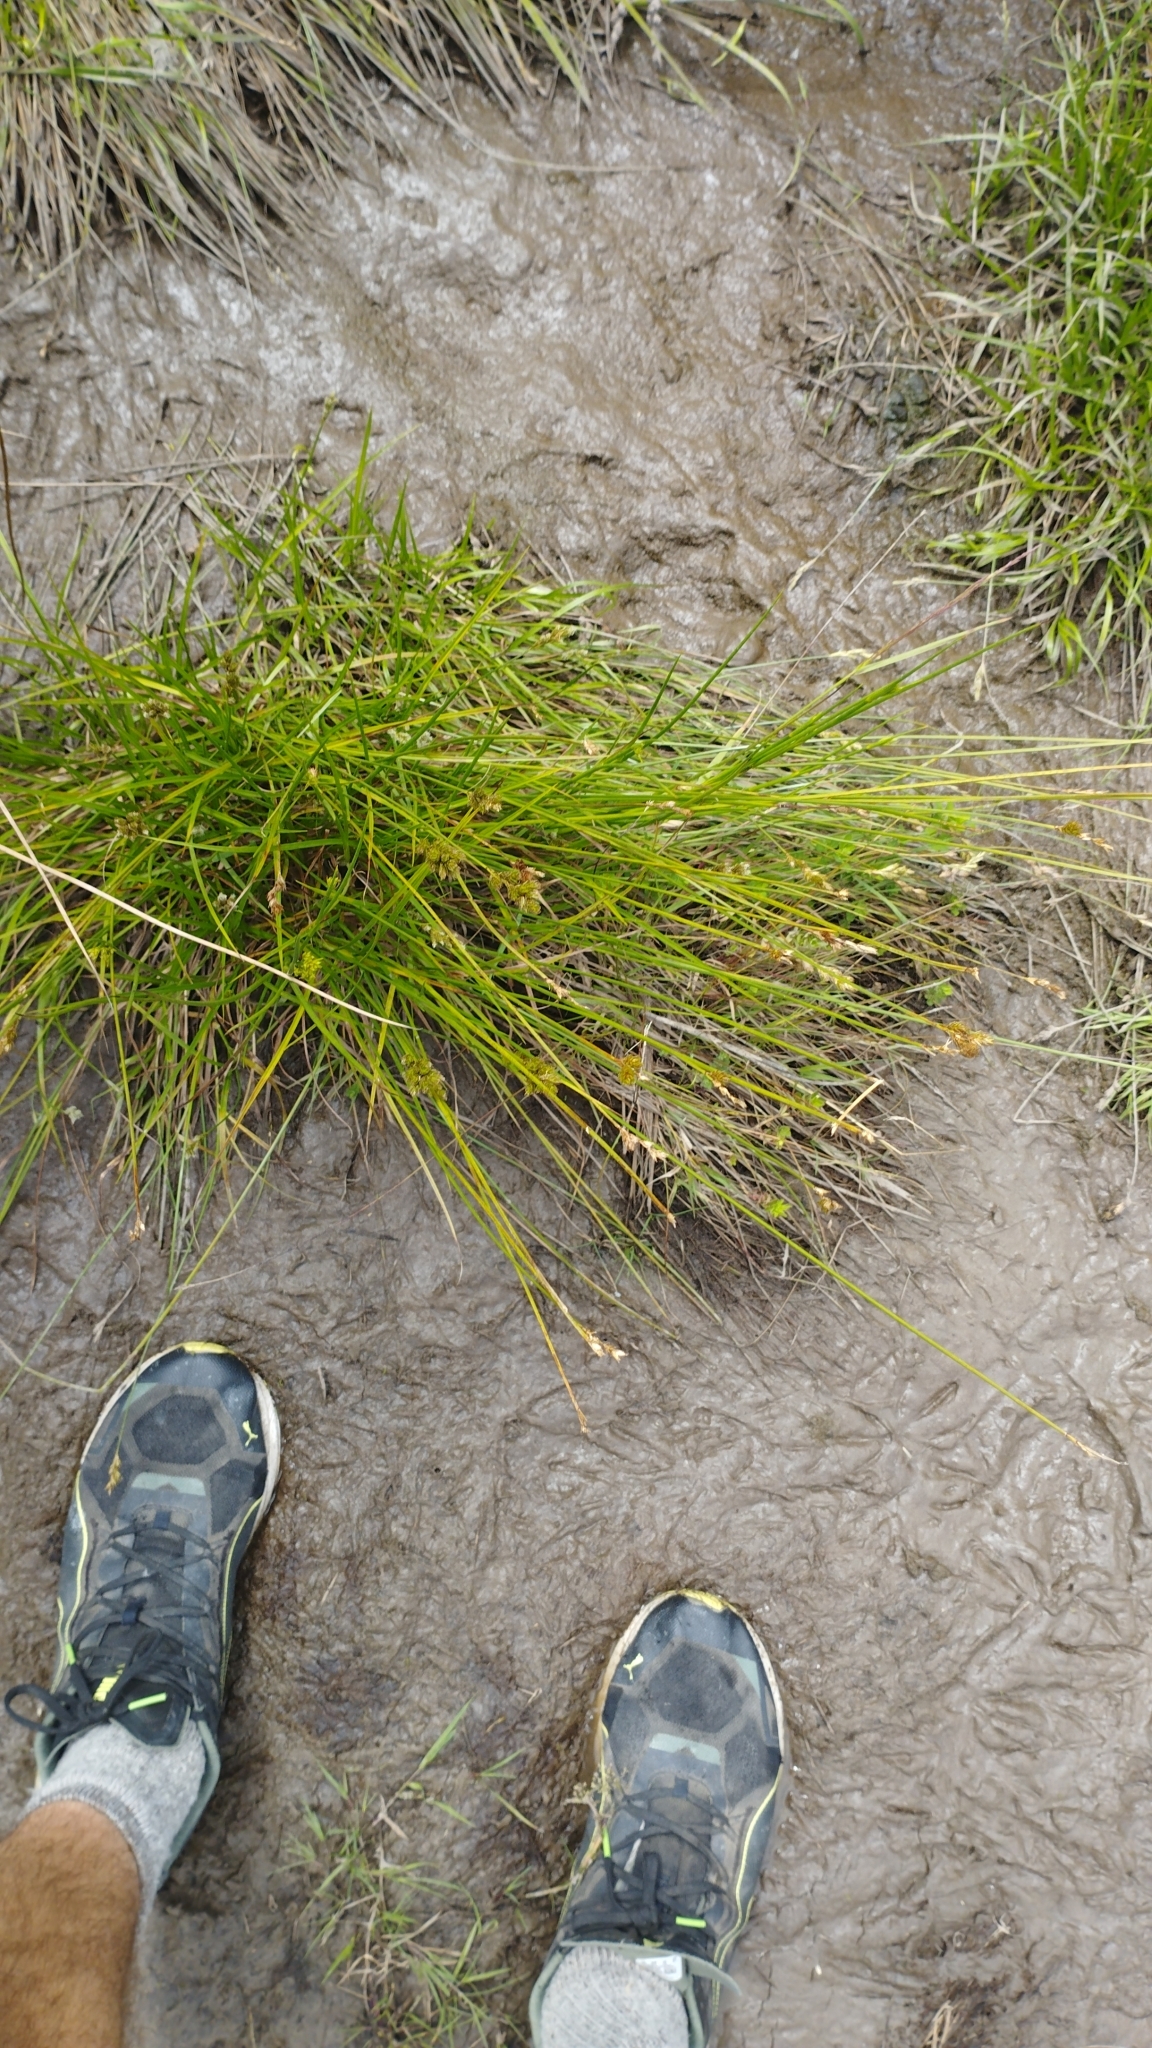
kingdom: Plantae
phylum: Tracheophyta
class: Liliopsida
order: Poales
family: Cyperaceae
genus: Carex
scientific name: Carex leporina
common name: Oval sedge
